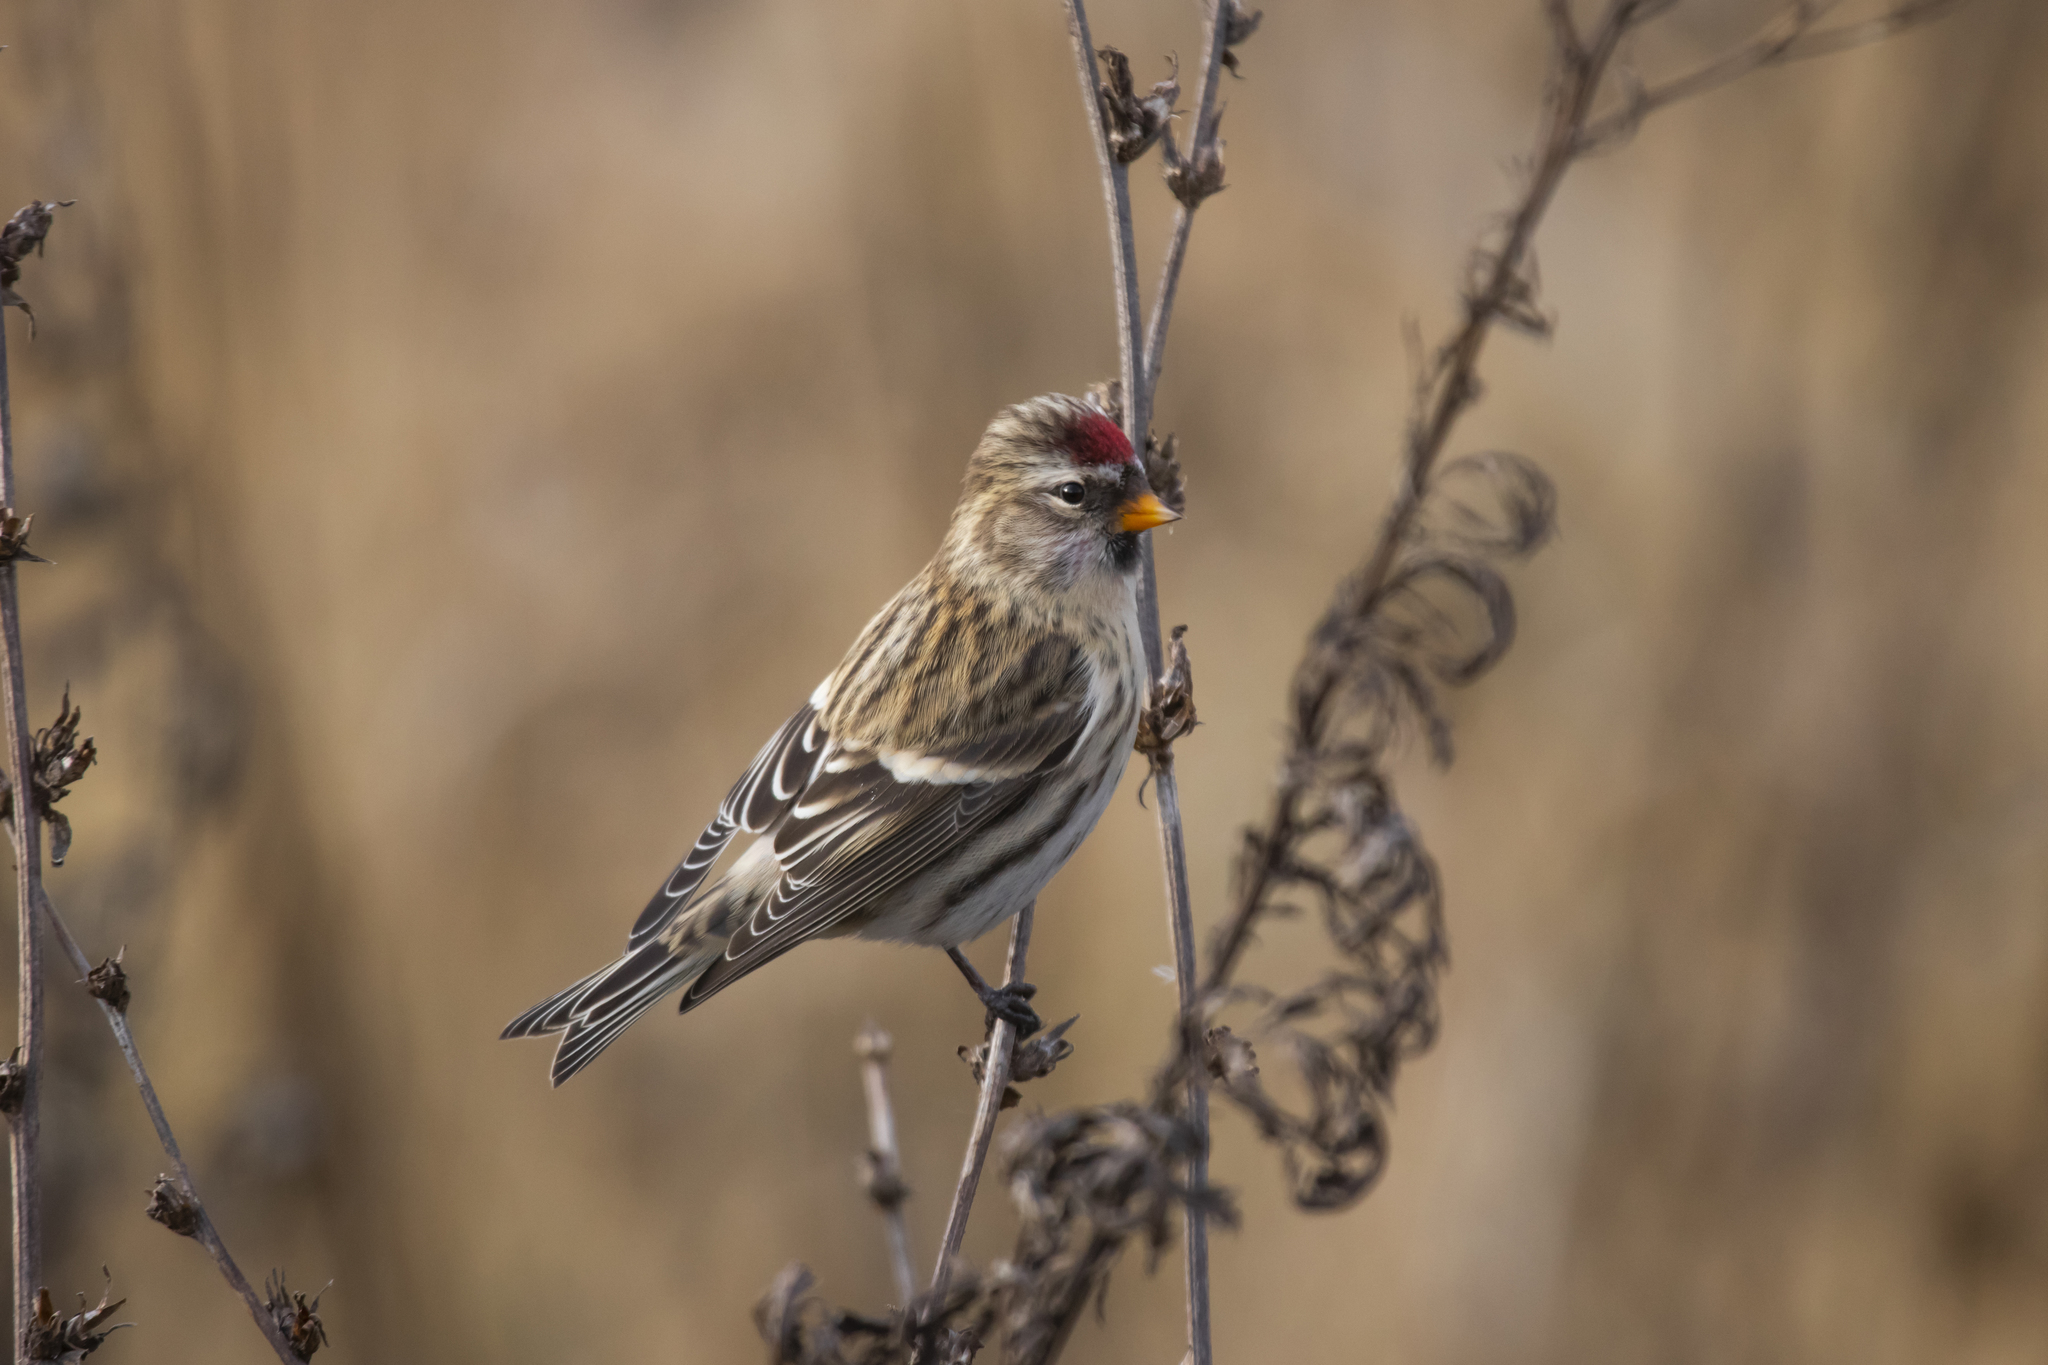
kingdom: Animalia
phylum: Chordata
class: Aves
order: Passeriformes
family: Fringillidae
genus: Acanthis
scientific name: Acanthis flammea
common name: Common redpoll
